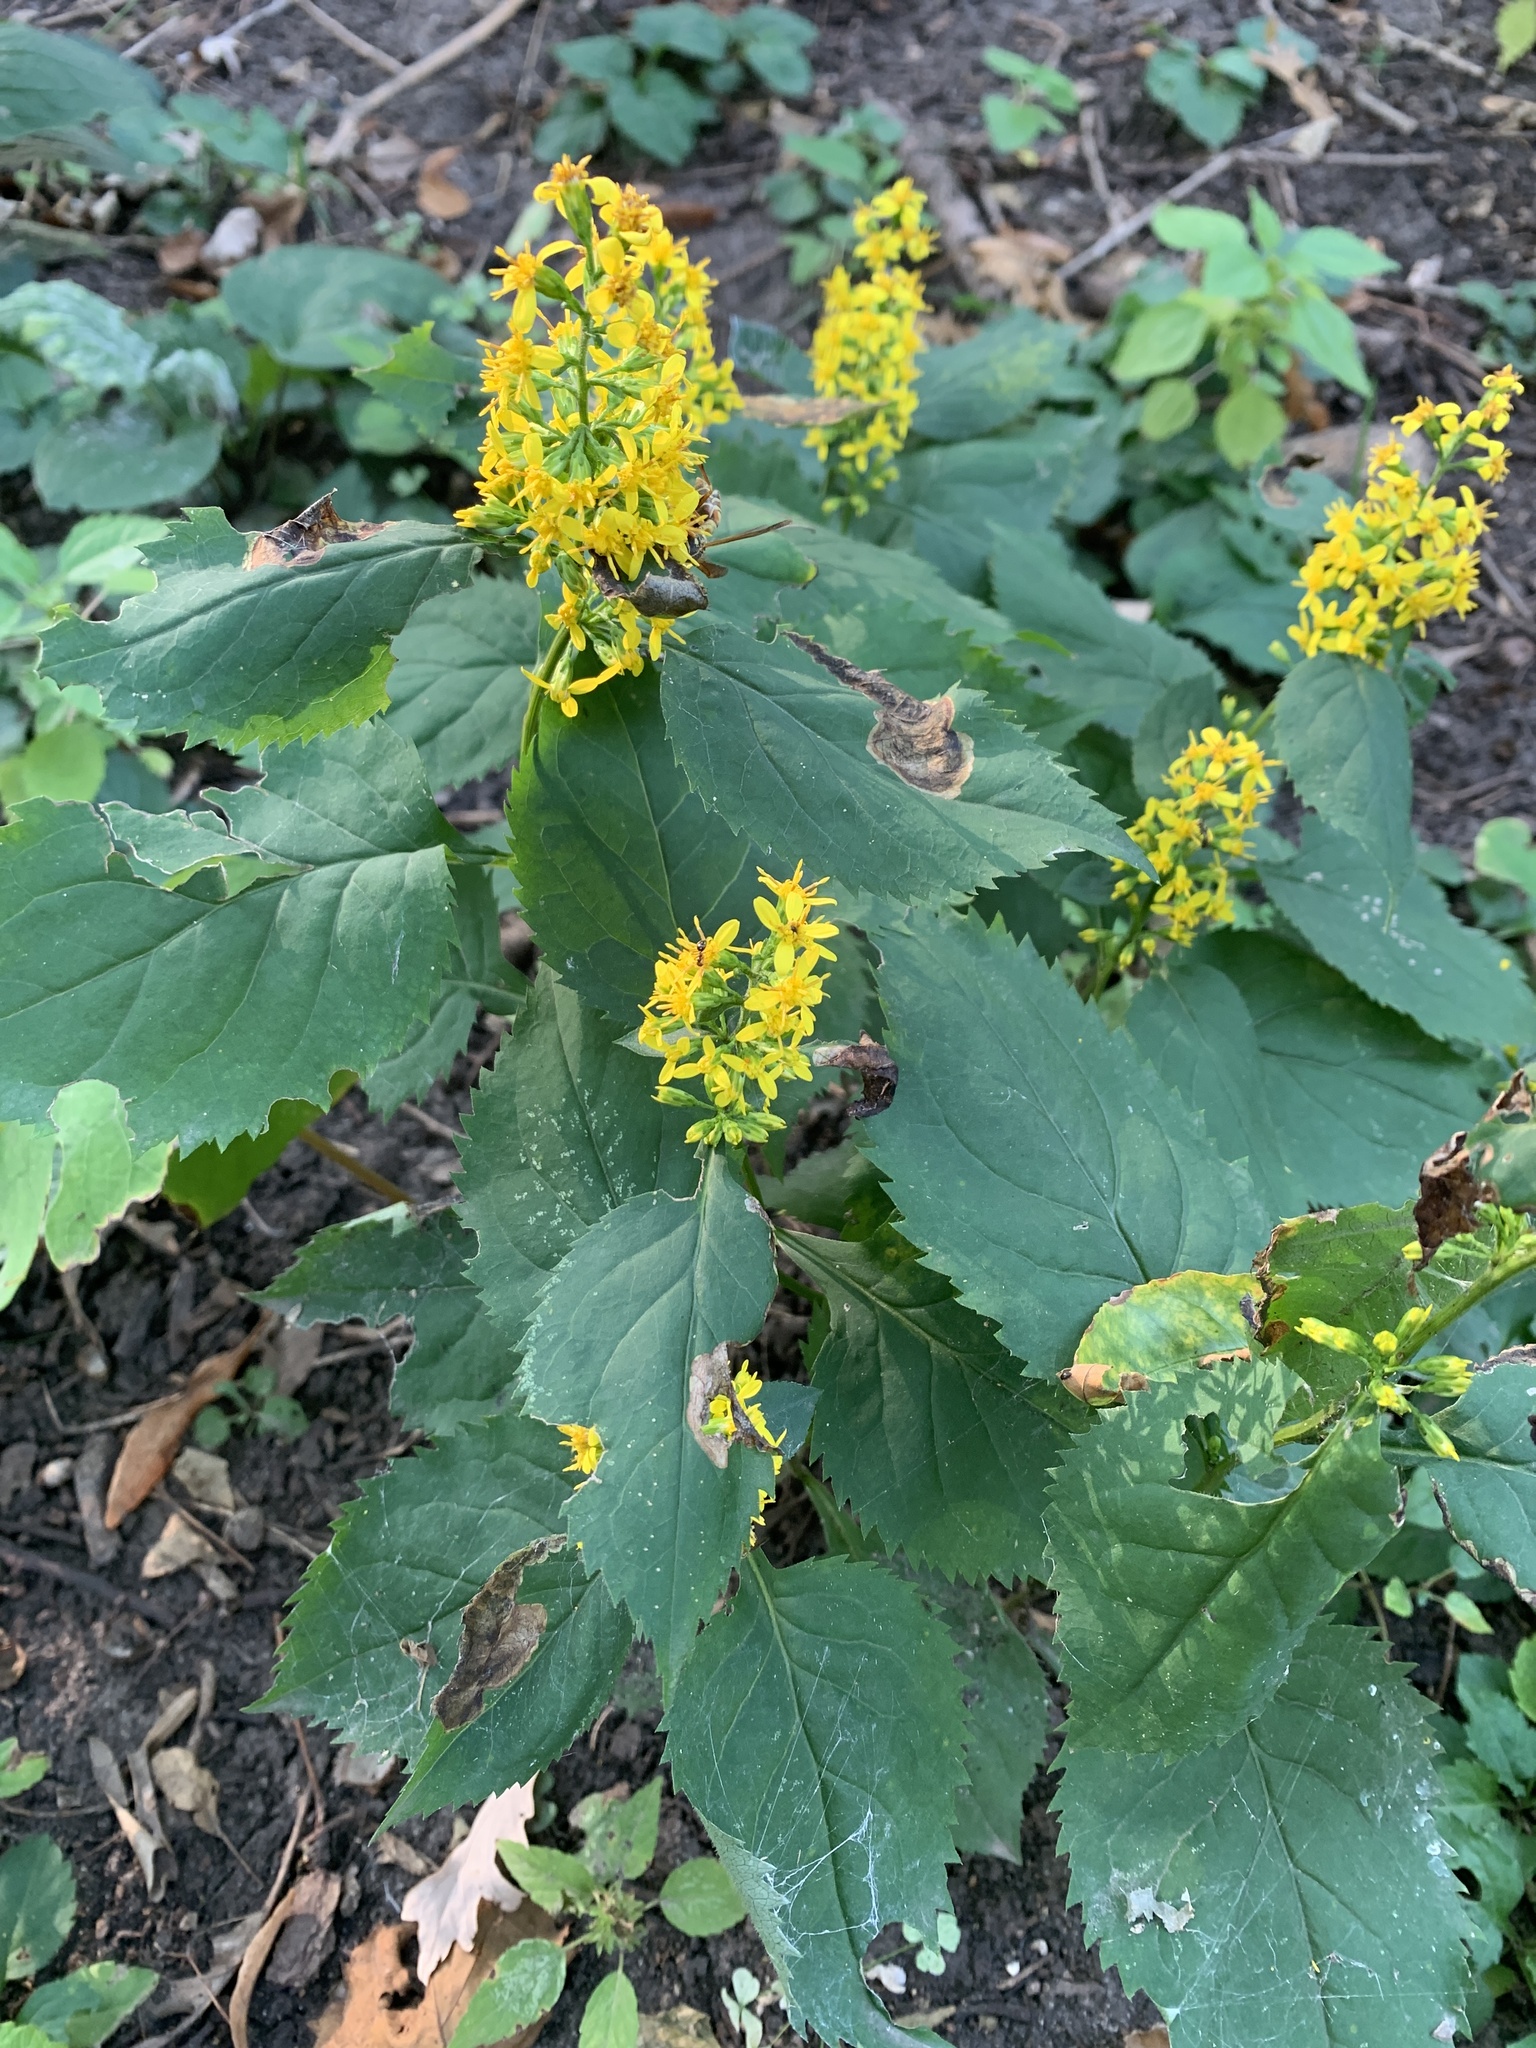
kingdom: Plantae
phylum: Tracheophyta
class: Magnoliopsida
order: Asterales
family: Asteraceae
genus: Solidago
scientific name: Solidago flexicaulis
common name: Zig-zag goldenrod
